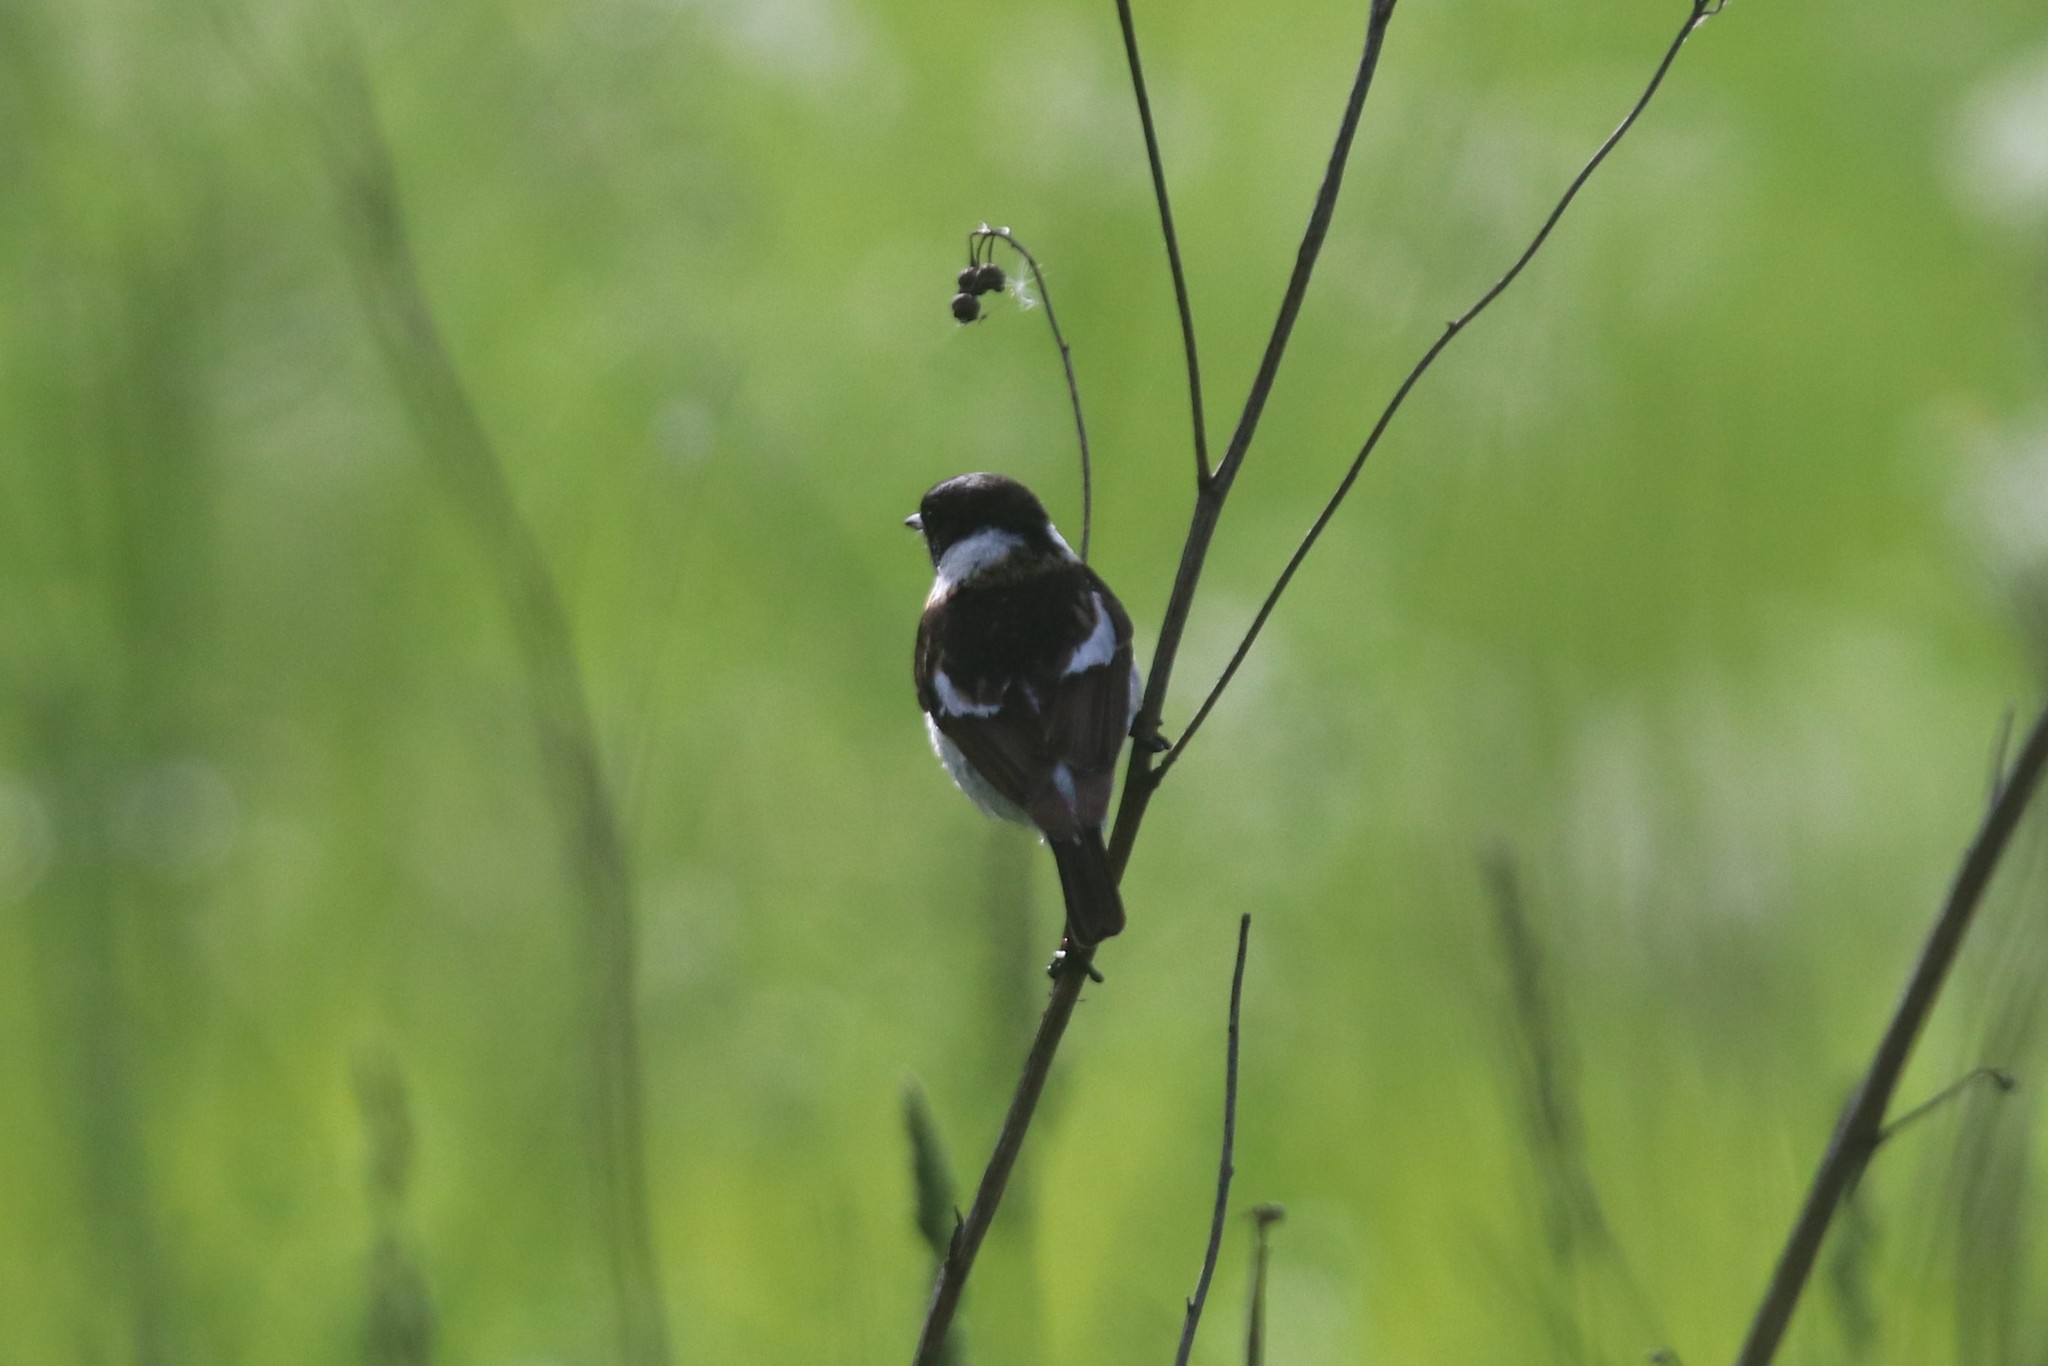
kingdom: Animalia
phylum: Chordata
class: Aves
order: Passeriformes
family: Muscicapidae
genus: Saxicola
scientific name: Saxicola maurus
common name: Siberian stonechat
